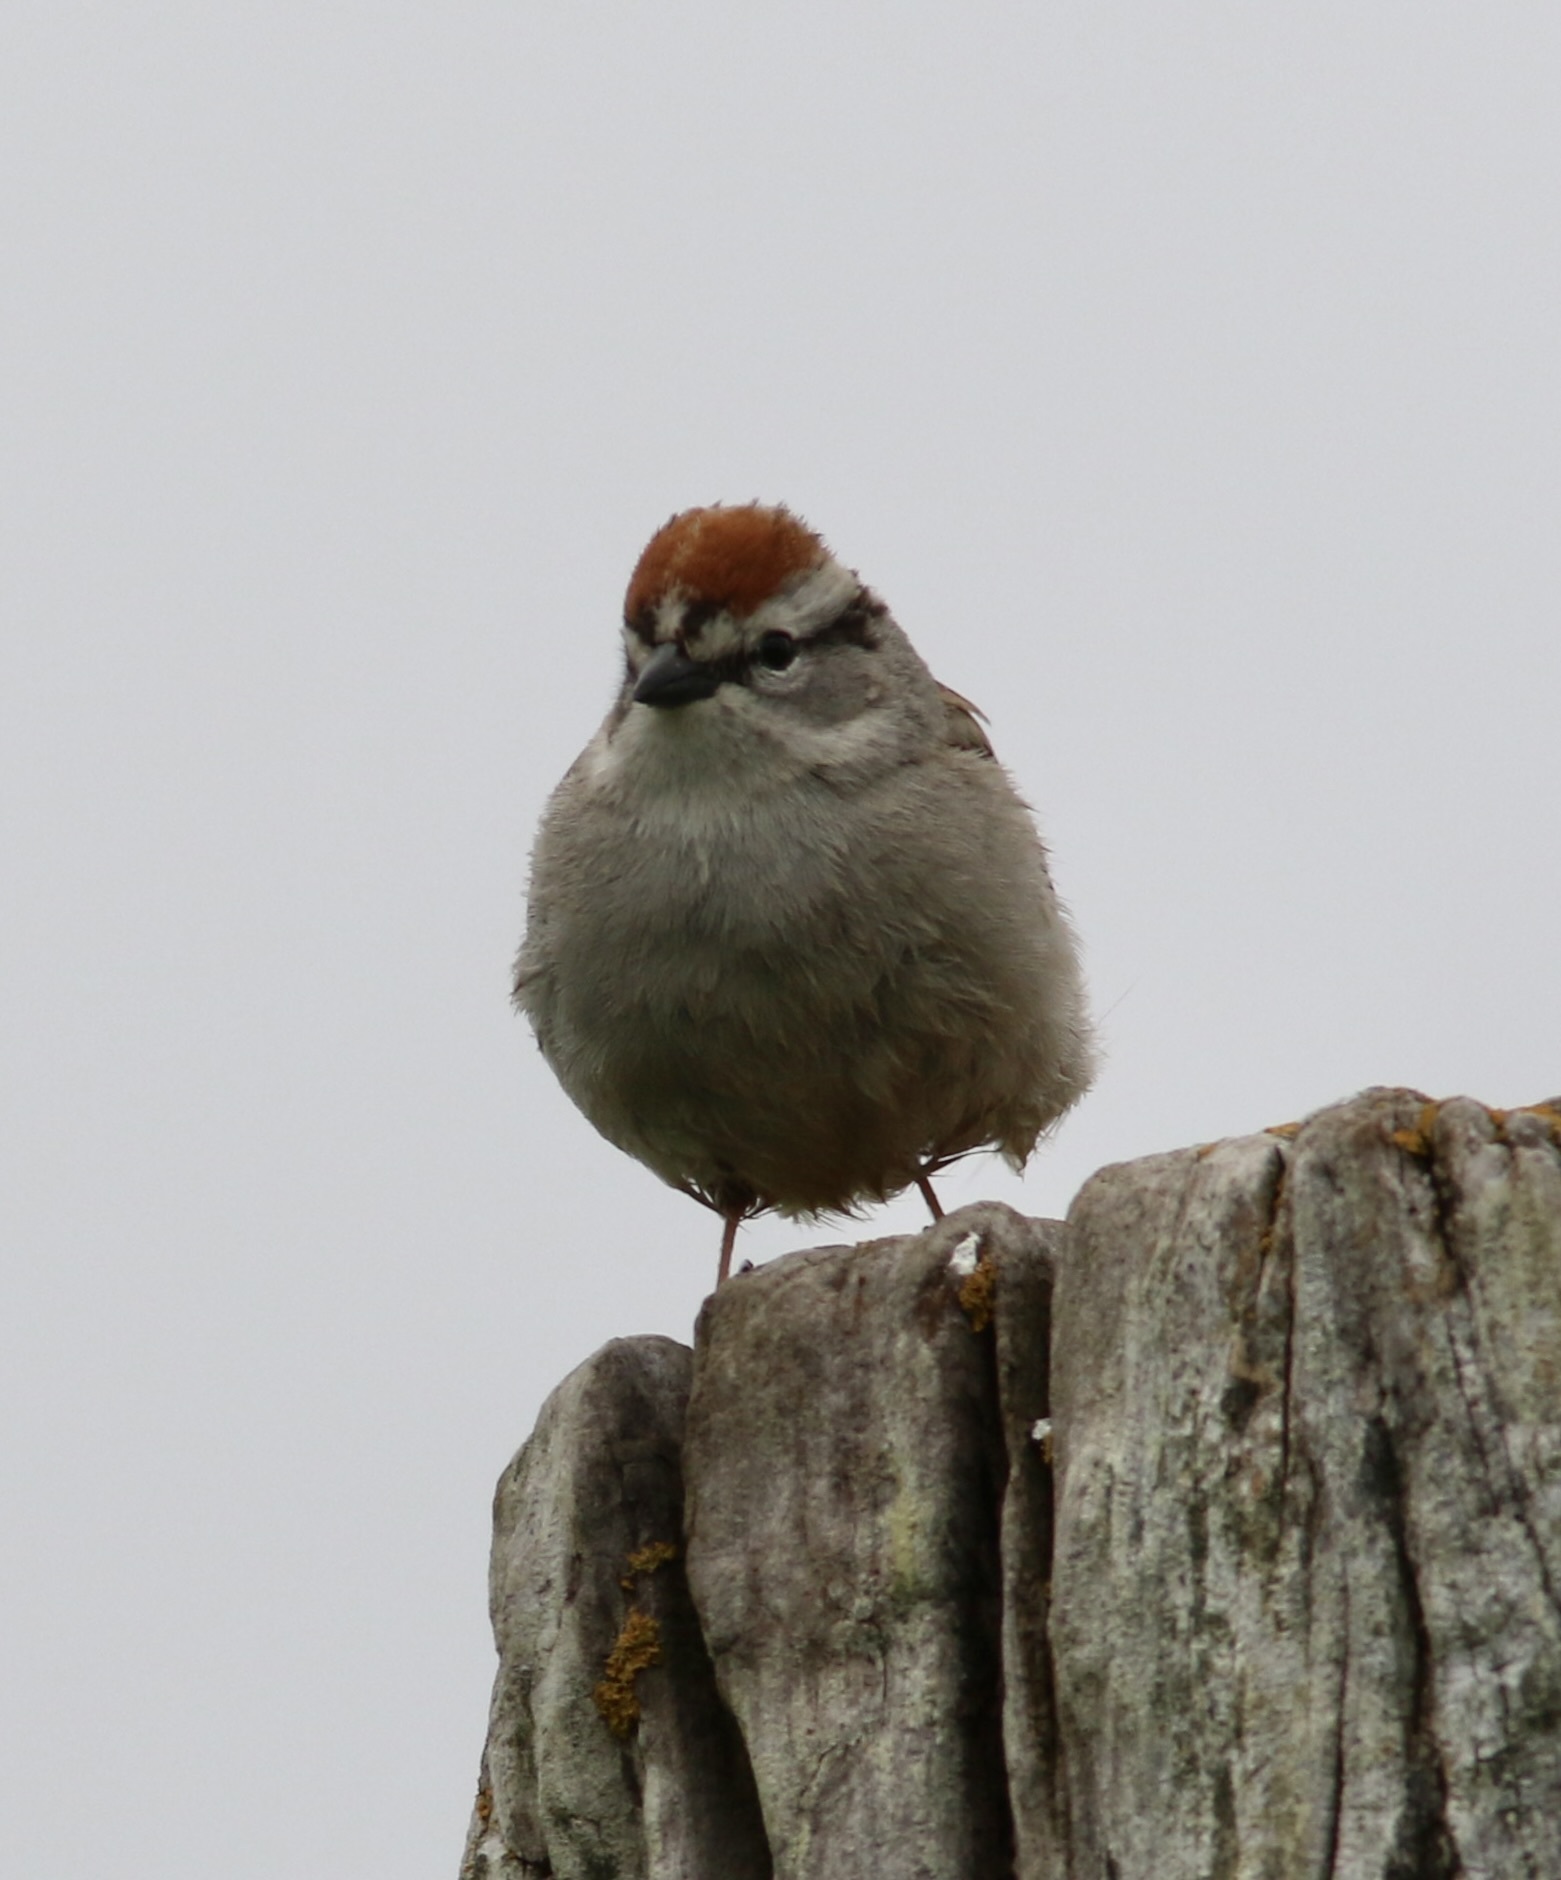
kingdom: Animalia
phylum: Chordata
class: Aves
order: Passeriformes
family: Passerellidae
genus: Spizella
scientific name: Spizella passerina
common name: Chipping sparrow
